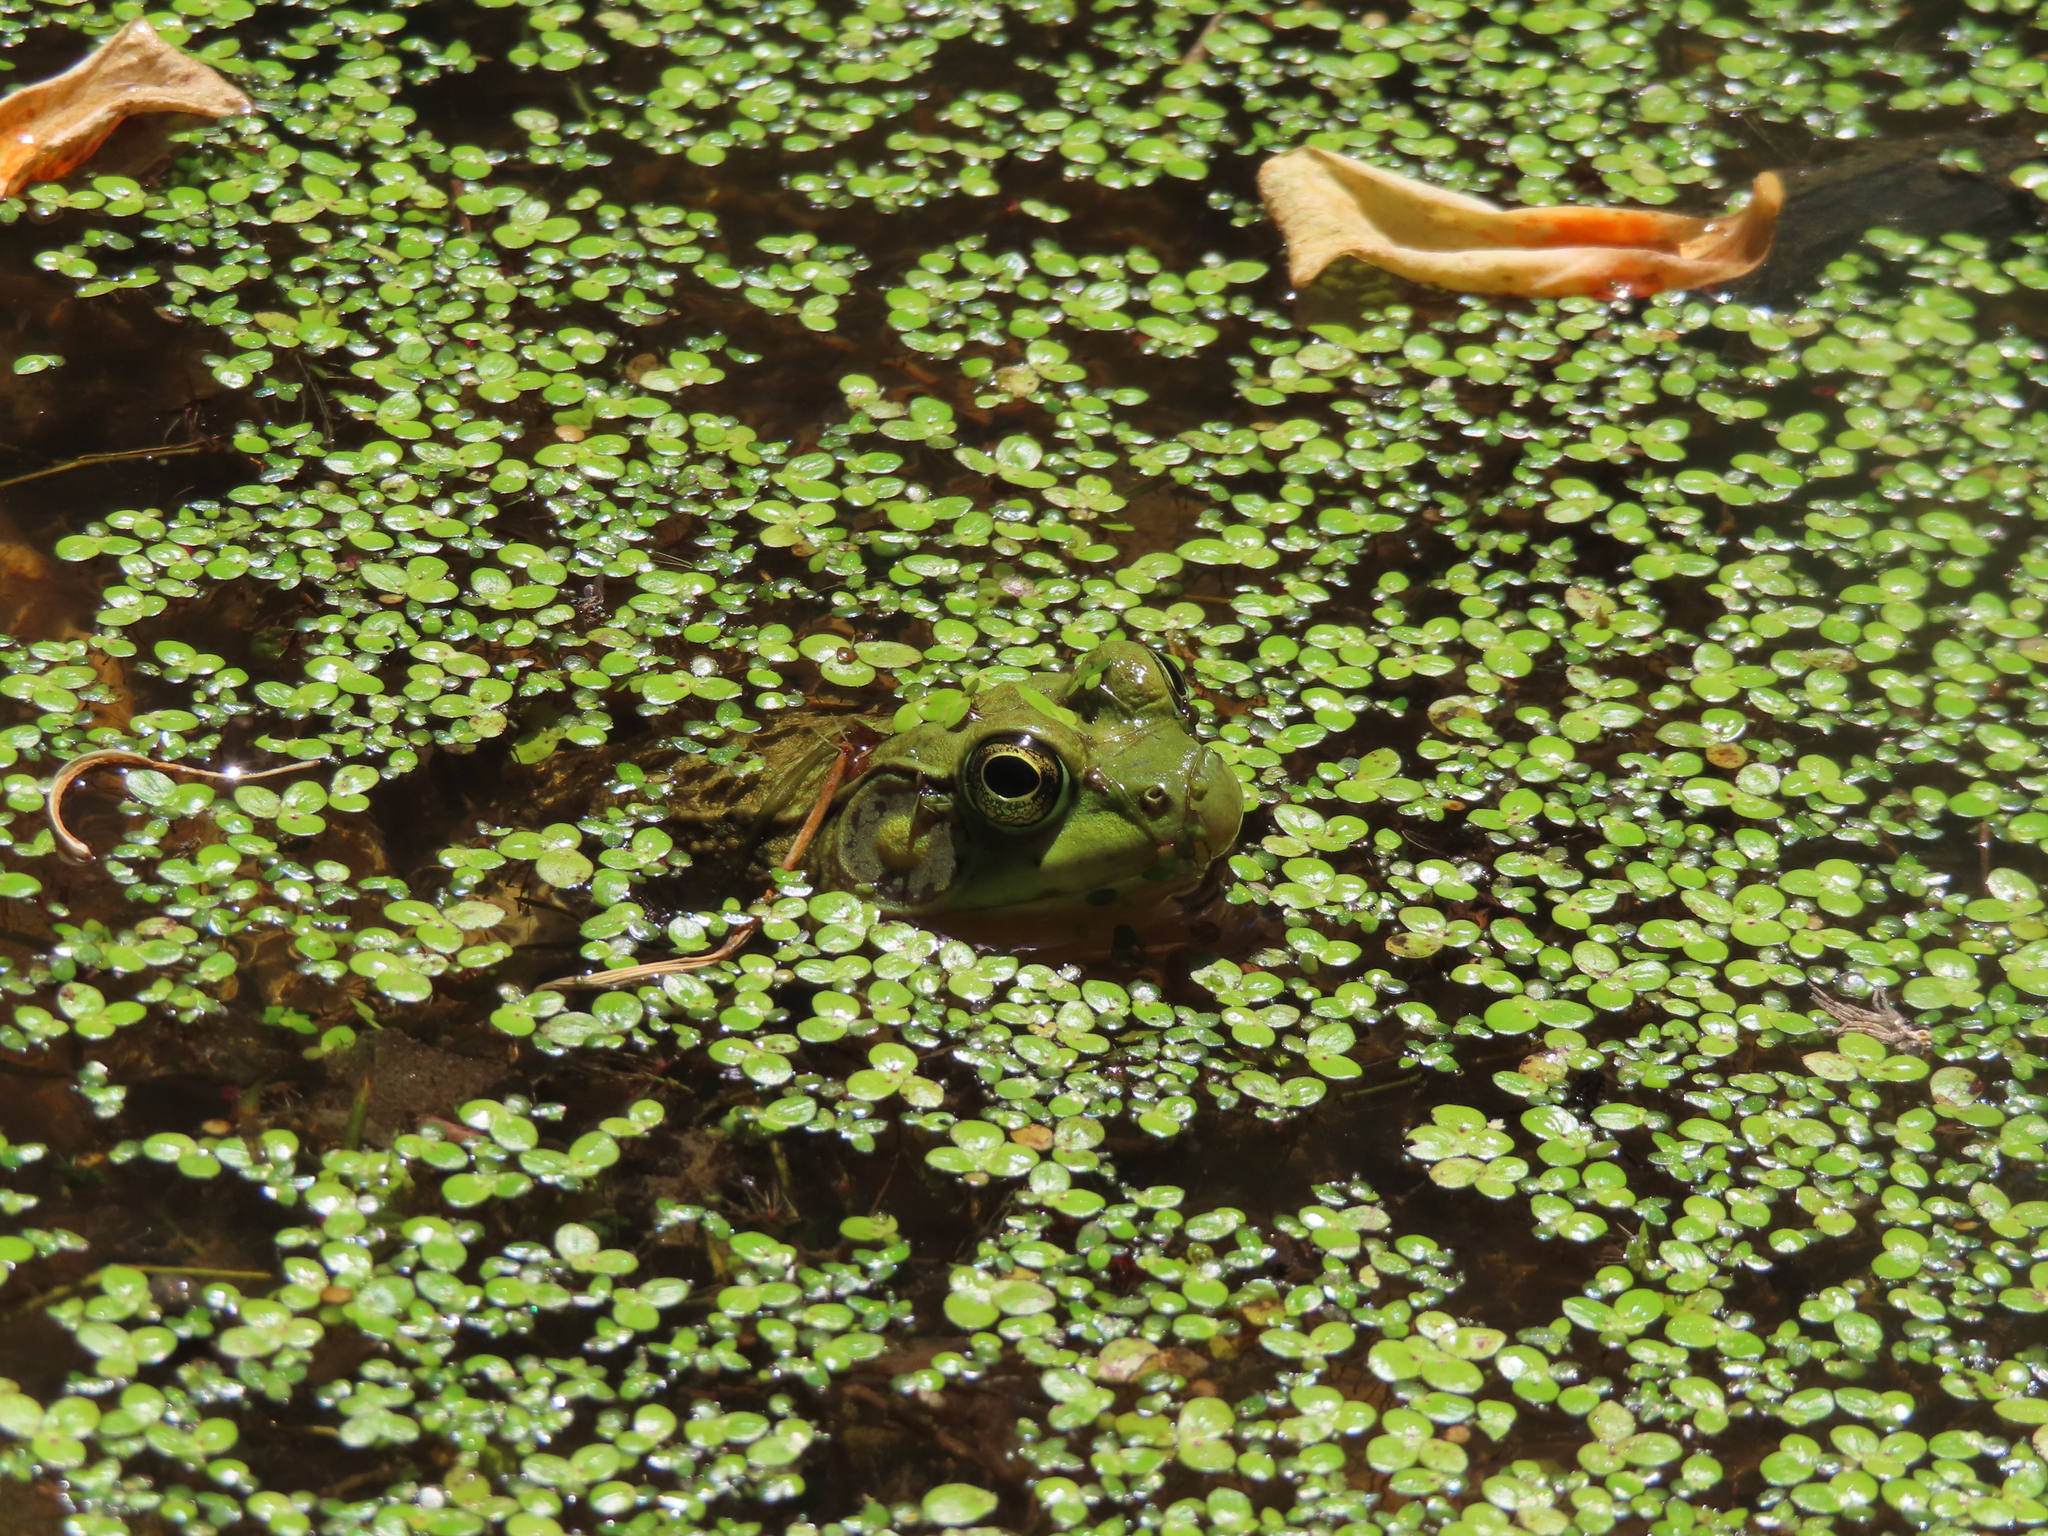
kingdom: Animalia
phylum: Chordata
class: Amphibia
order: Anura
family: Ranidae
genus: Lithobates
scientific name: Lithobates clamitans
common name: Green frog
